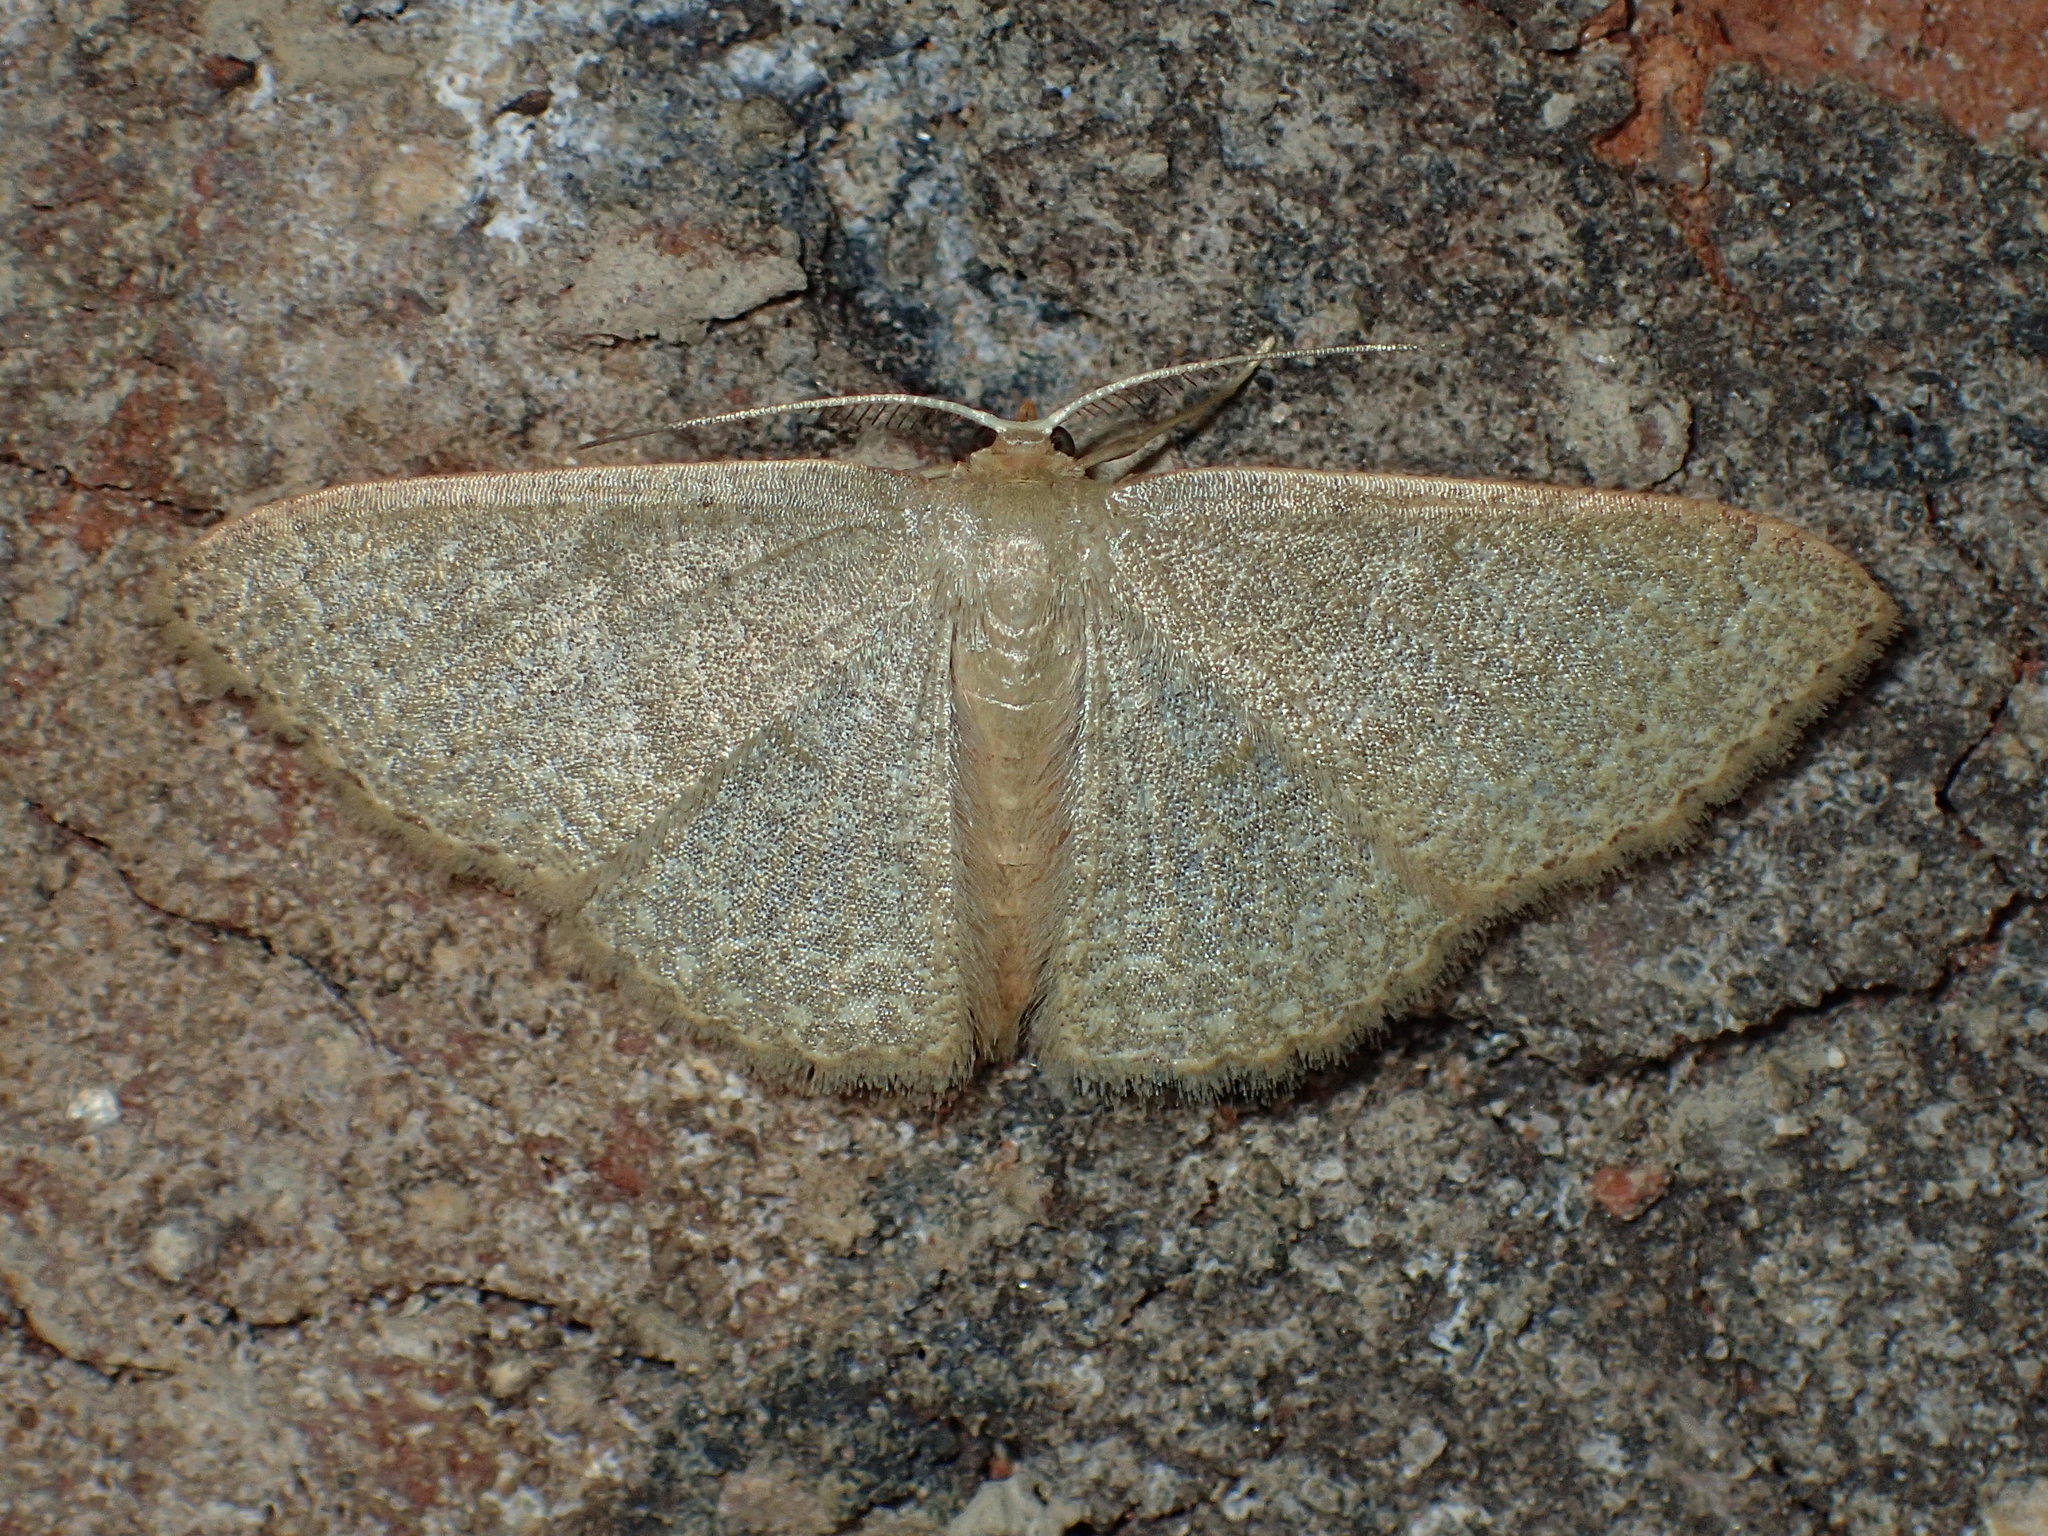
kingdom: Animalia
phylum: Arthropoda
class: Insecta
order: Lepidoptera
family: Geometridae
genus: Pleuroprucha
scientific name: Pleuroprucha insulsaria
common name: Common tan wave
